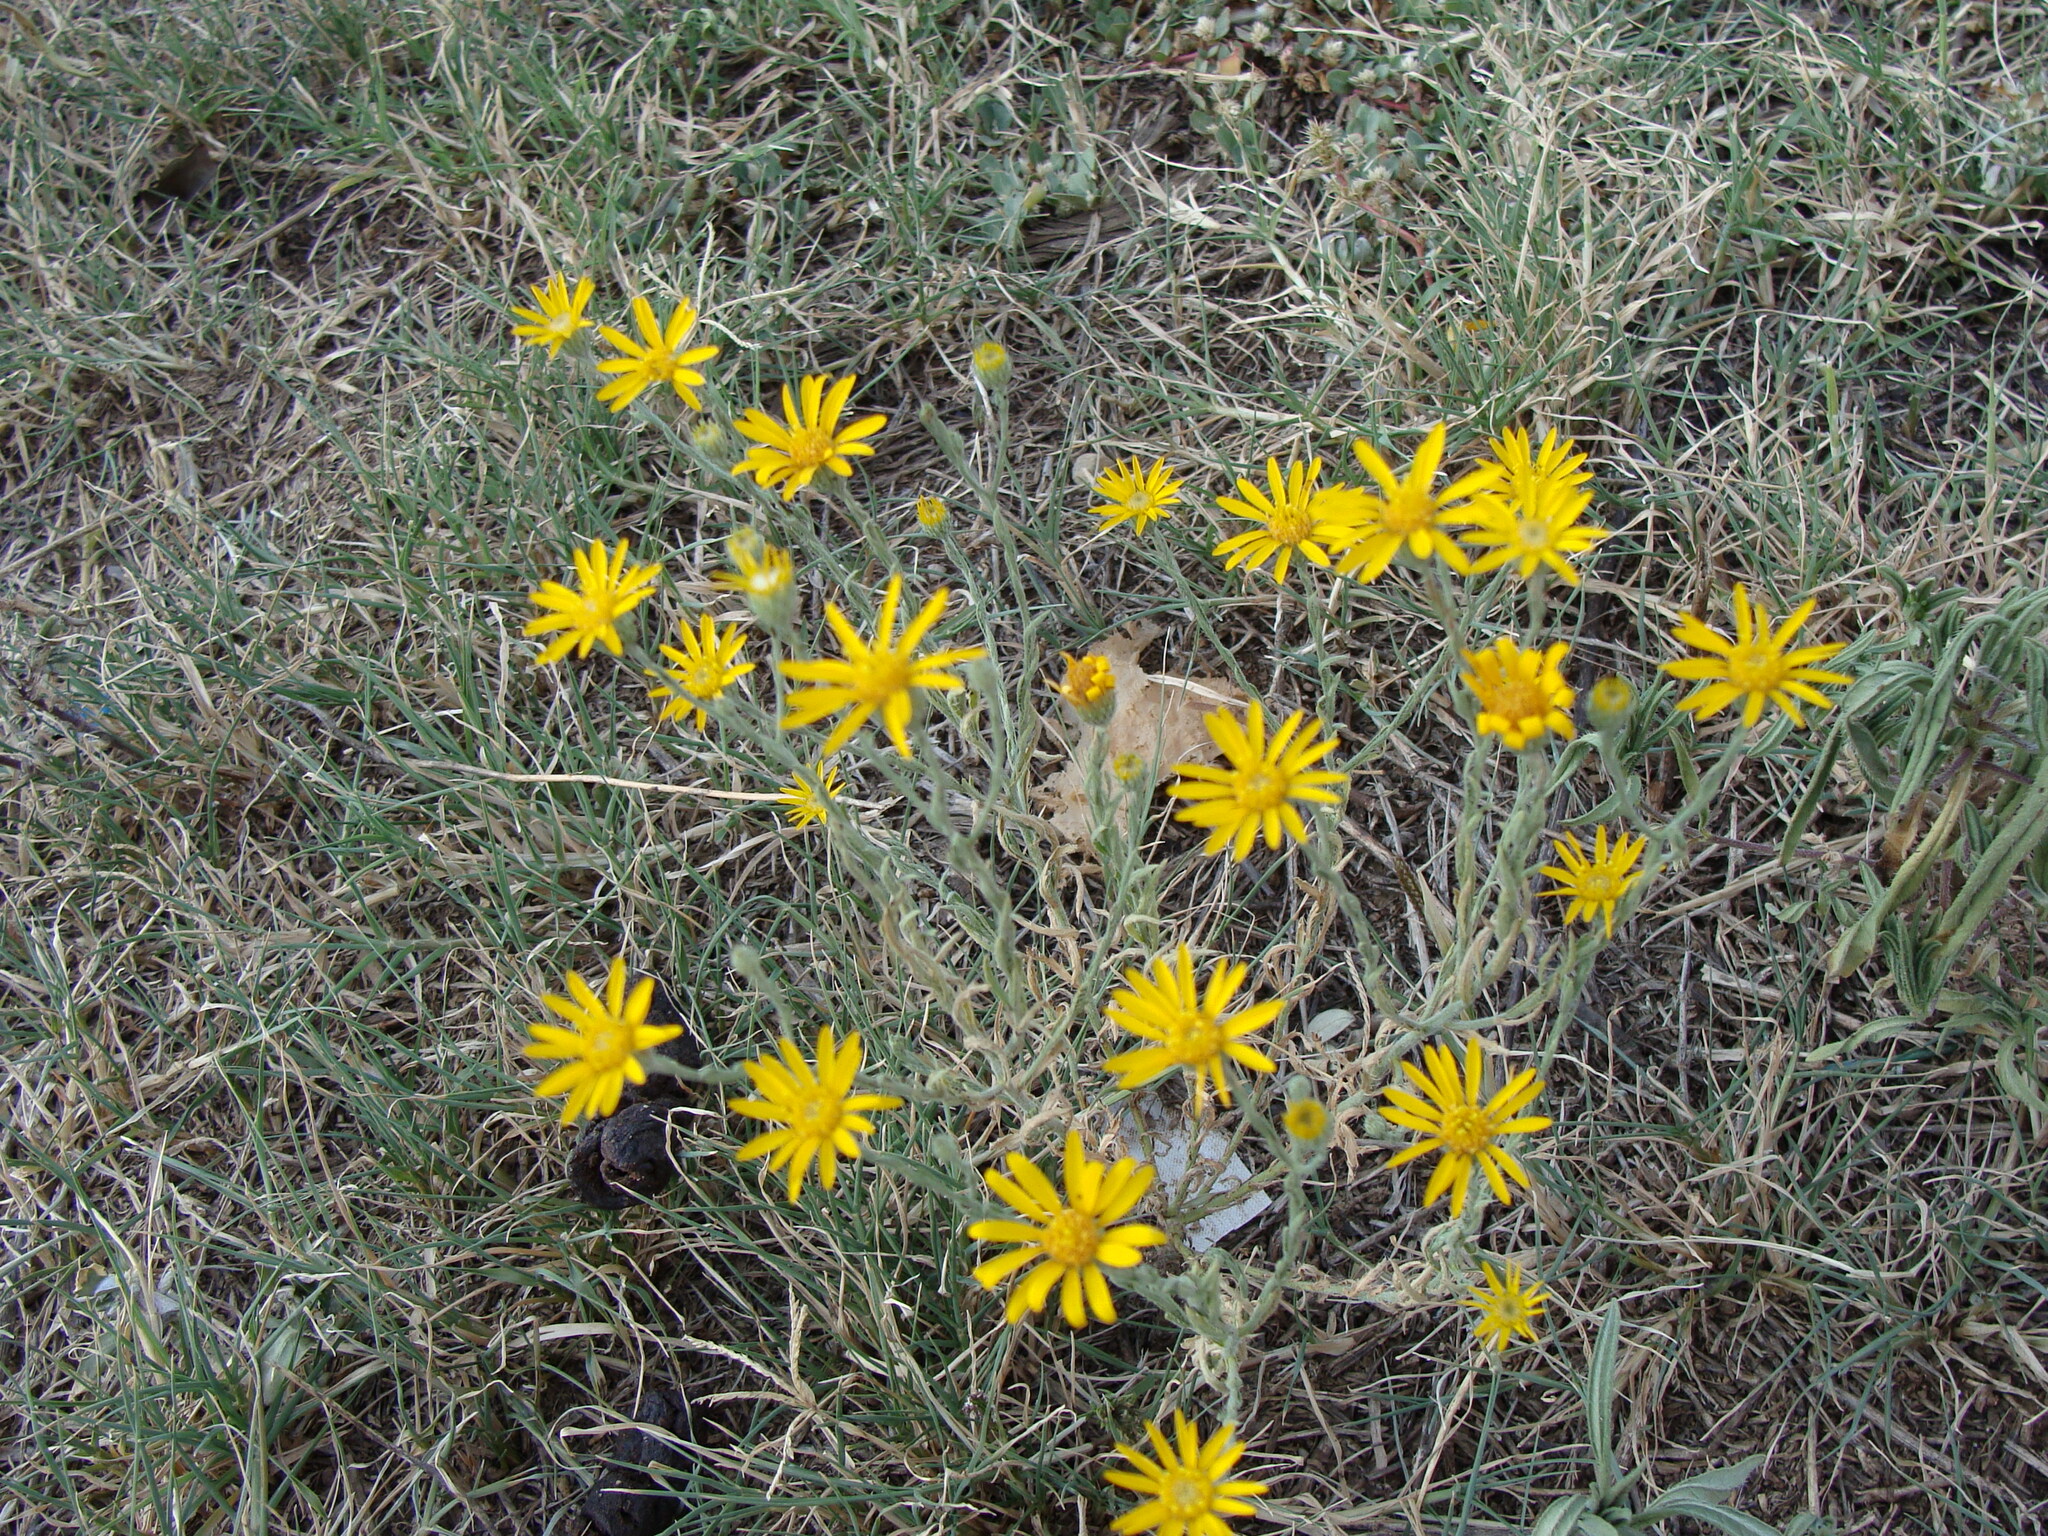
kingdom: Plantae
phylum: Tracheophyta
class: Magnoliopsida
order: Asterales
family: Asteraceae
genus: Xanthisma
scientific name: Xanthisma gracile
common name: Slender goldenweed
